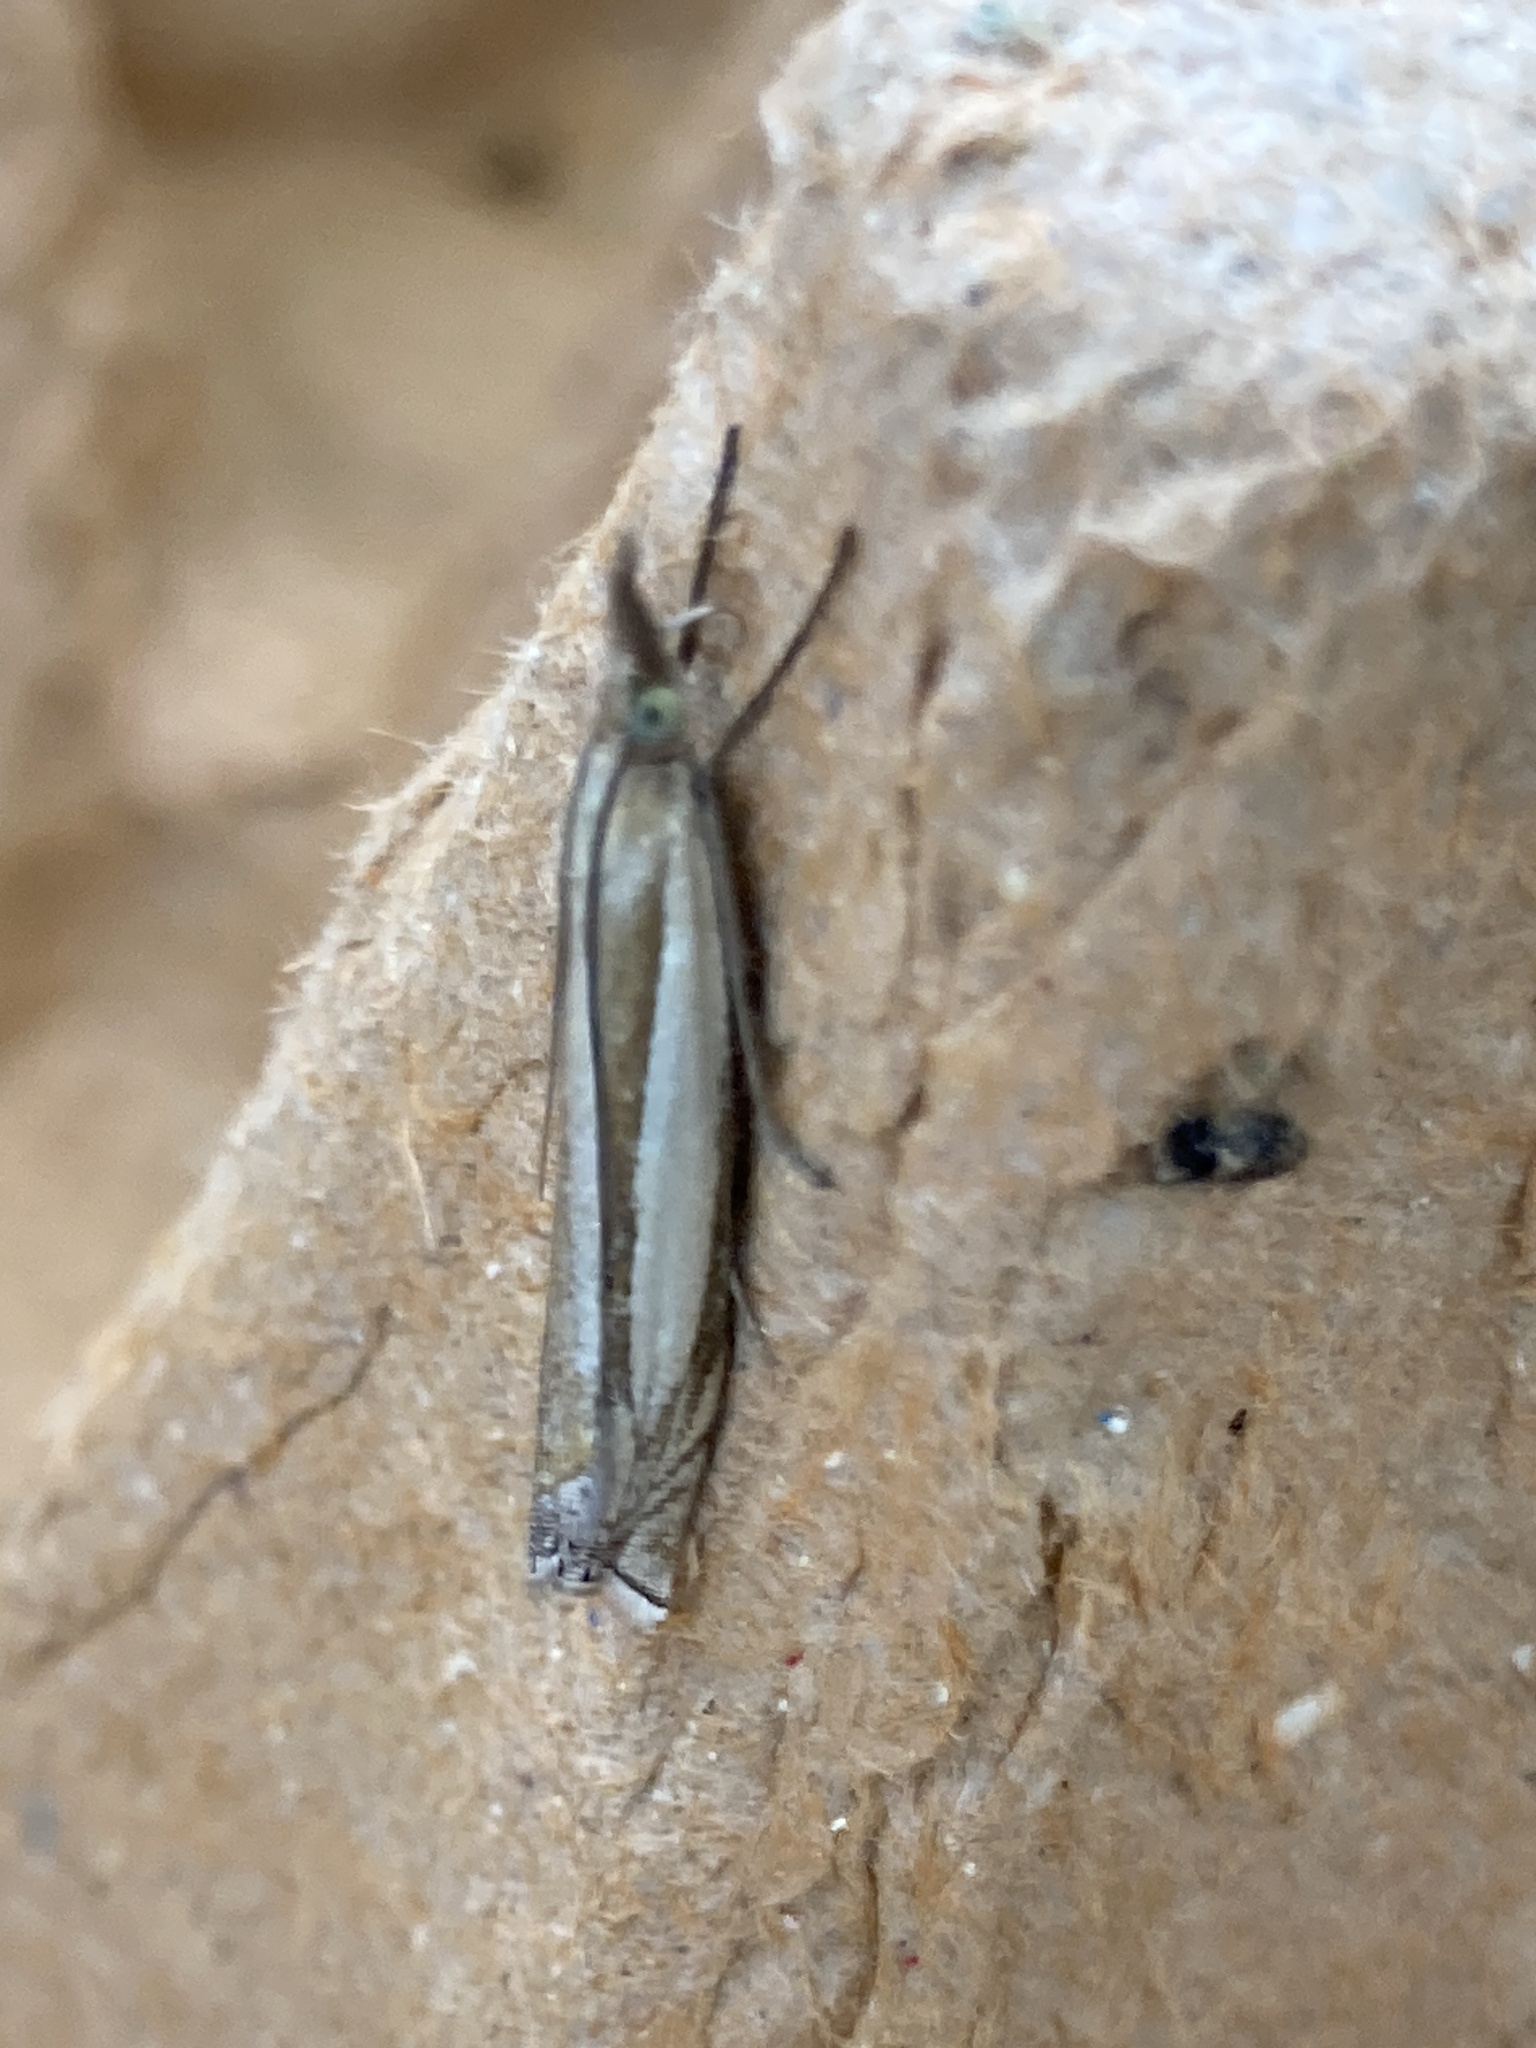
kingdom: Animalia
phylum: Arthropoda
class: Insecta
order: Lepidoptera
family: Crambidae
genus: Crambus
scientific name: Crambus pascuella
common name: Inlaid grass-veneer
